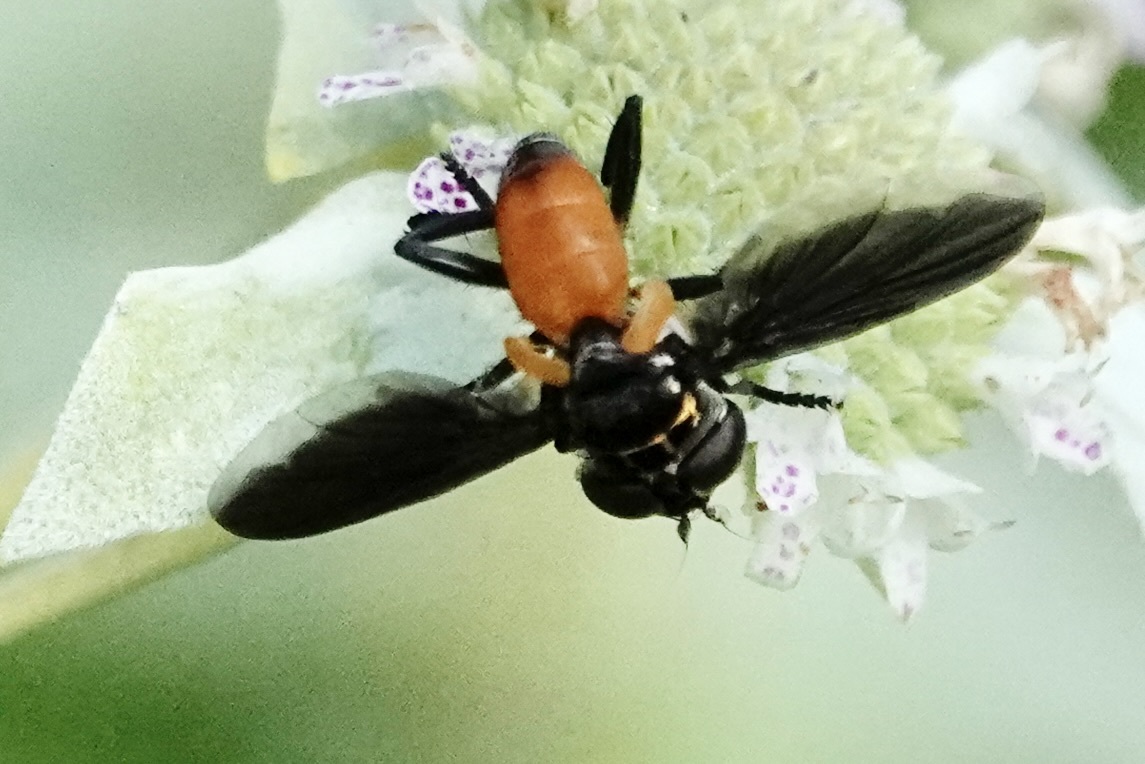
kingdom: Animalia
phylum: Arthropoda
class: Insecta
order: Diptera
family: Tachinidae
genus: Trichopoda
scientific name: Trichopoda pennipes
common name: Tachinid fly
